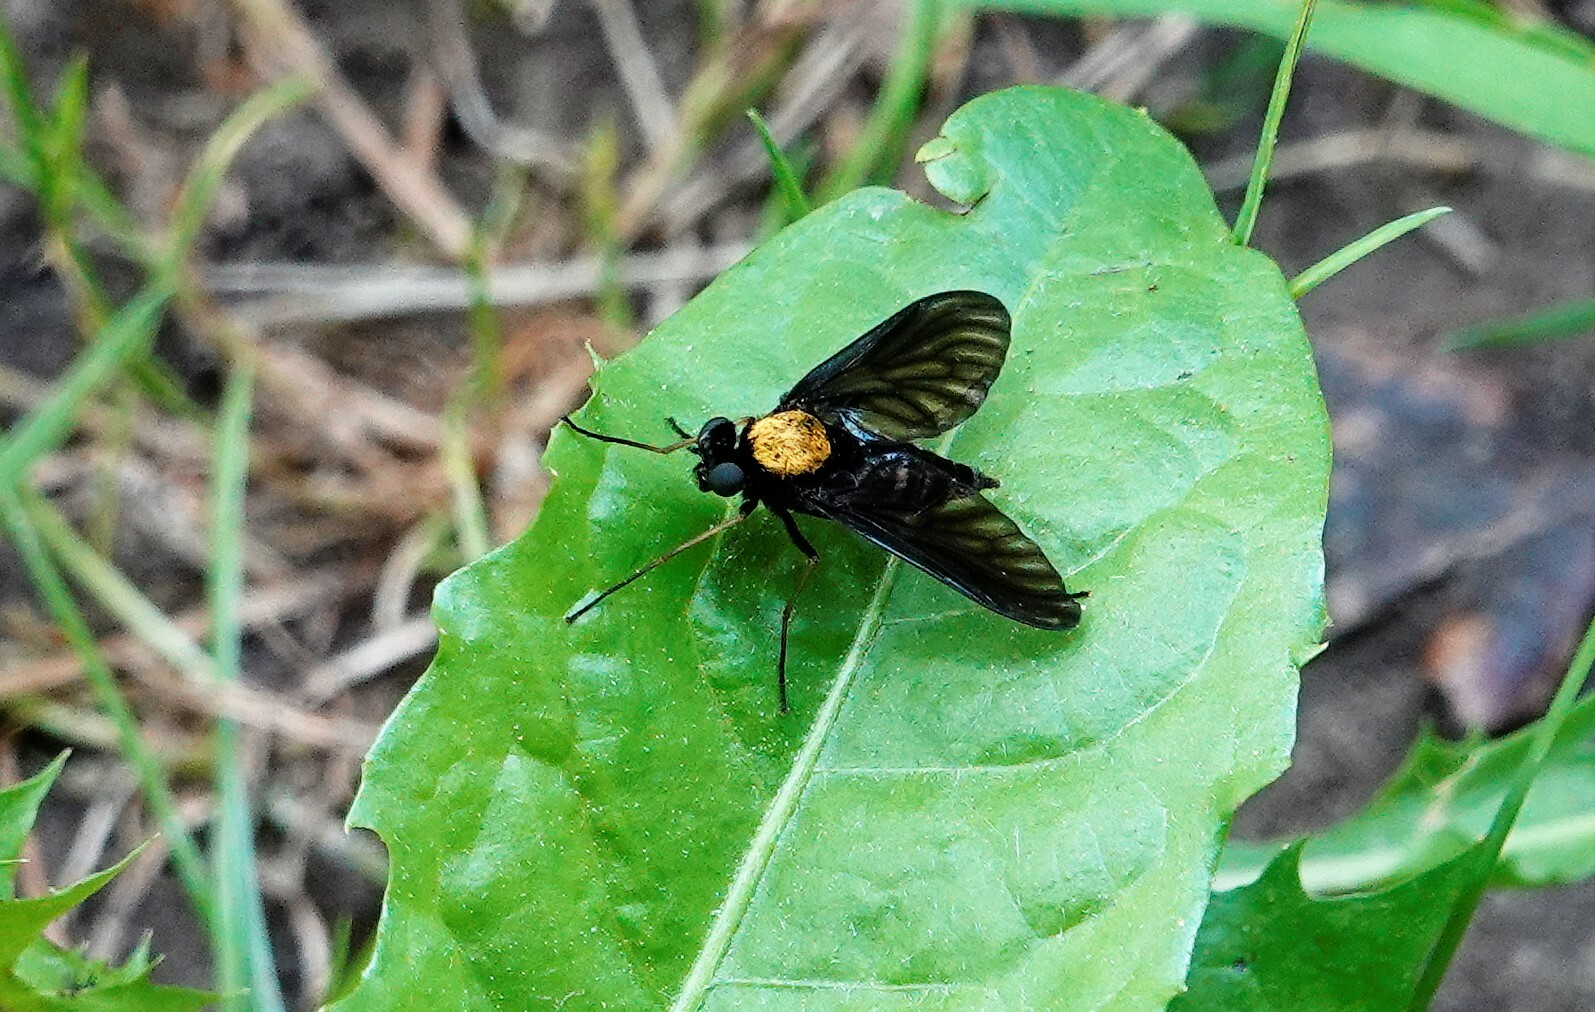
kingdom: Animalia
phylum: Arthropoda
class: Insecta
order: Diptera
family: Rhagionidae
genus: Chrysopilus
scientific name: Chrysopilus thoracicus
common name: Golden-backed snipe fly
